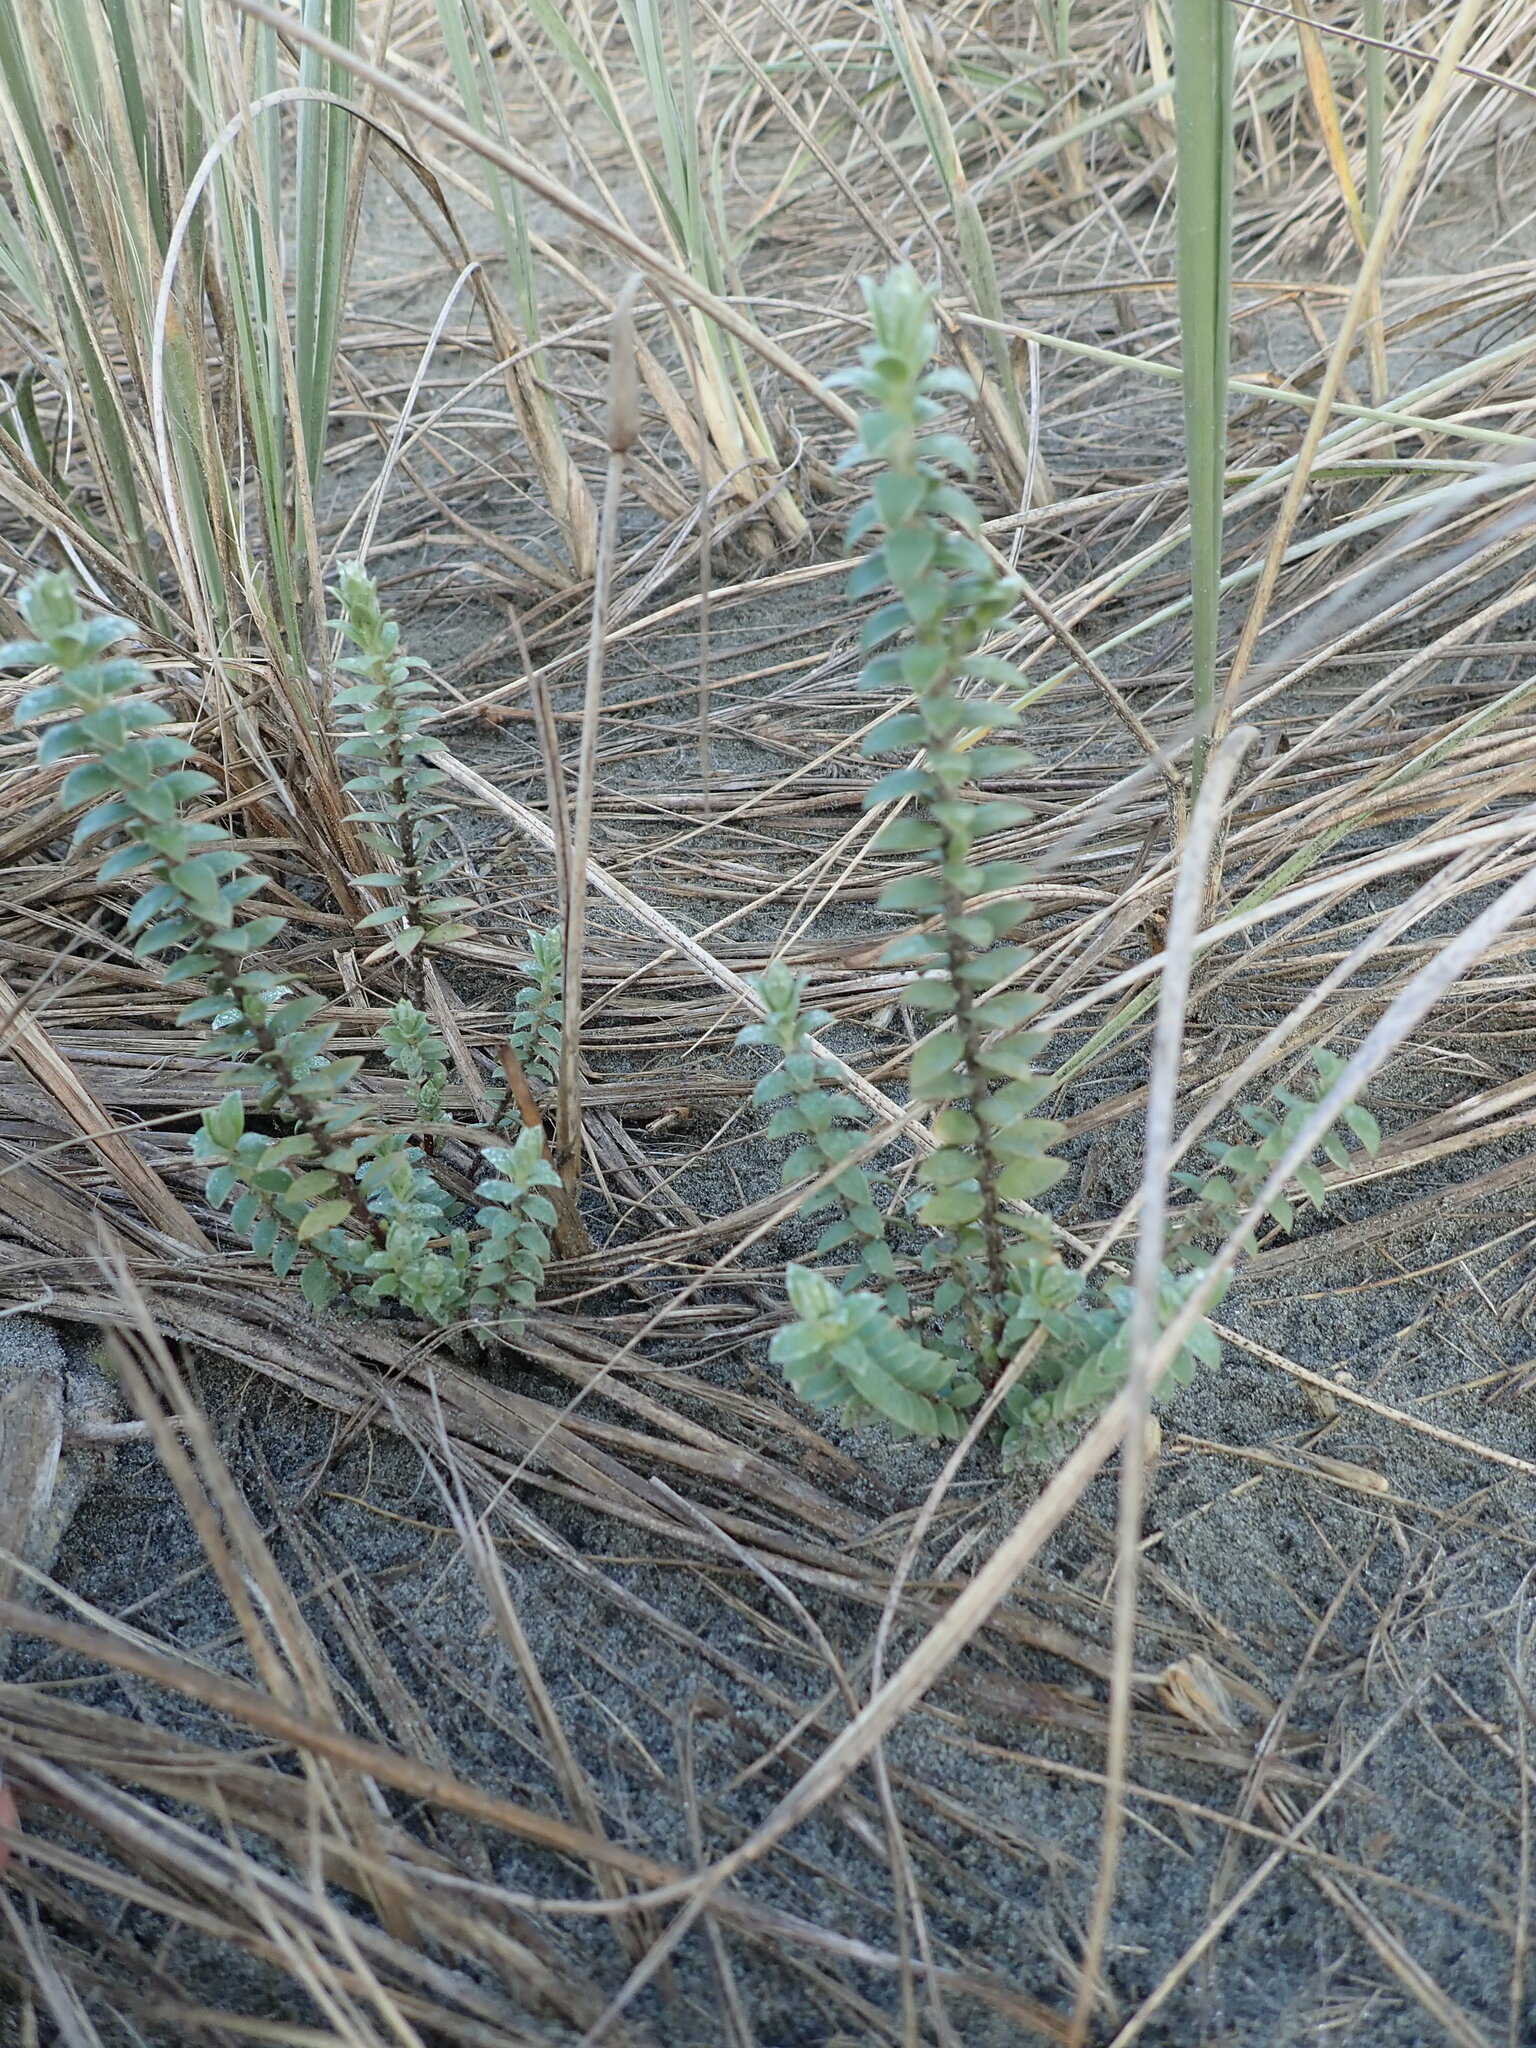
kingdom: Plantae
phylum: Tracheophyta
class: Magnoliopsida
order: Malvales
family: Thymelaeaceae
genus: Pimelea
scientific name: Pimelea villosa
